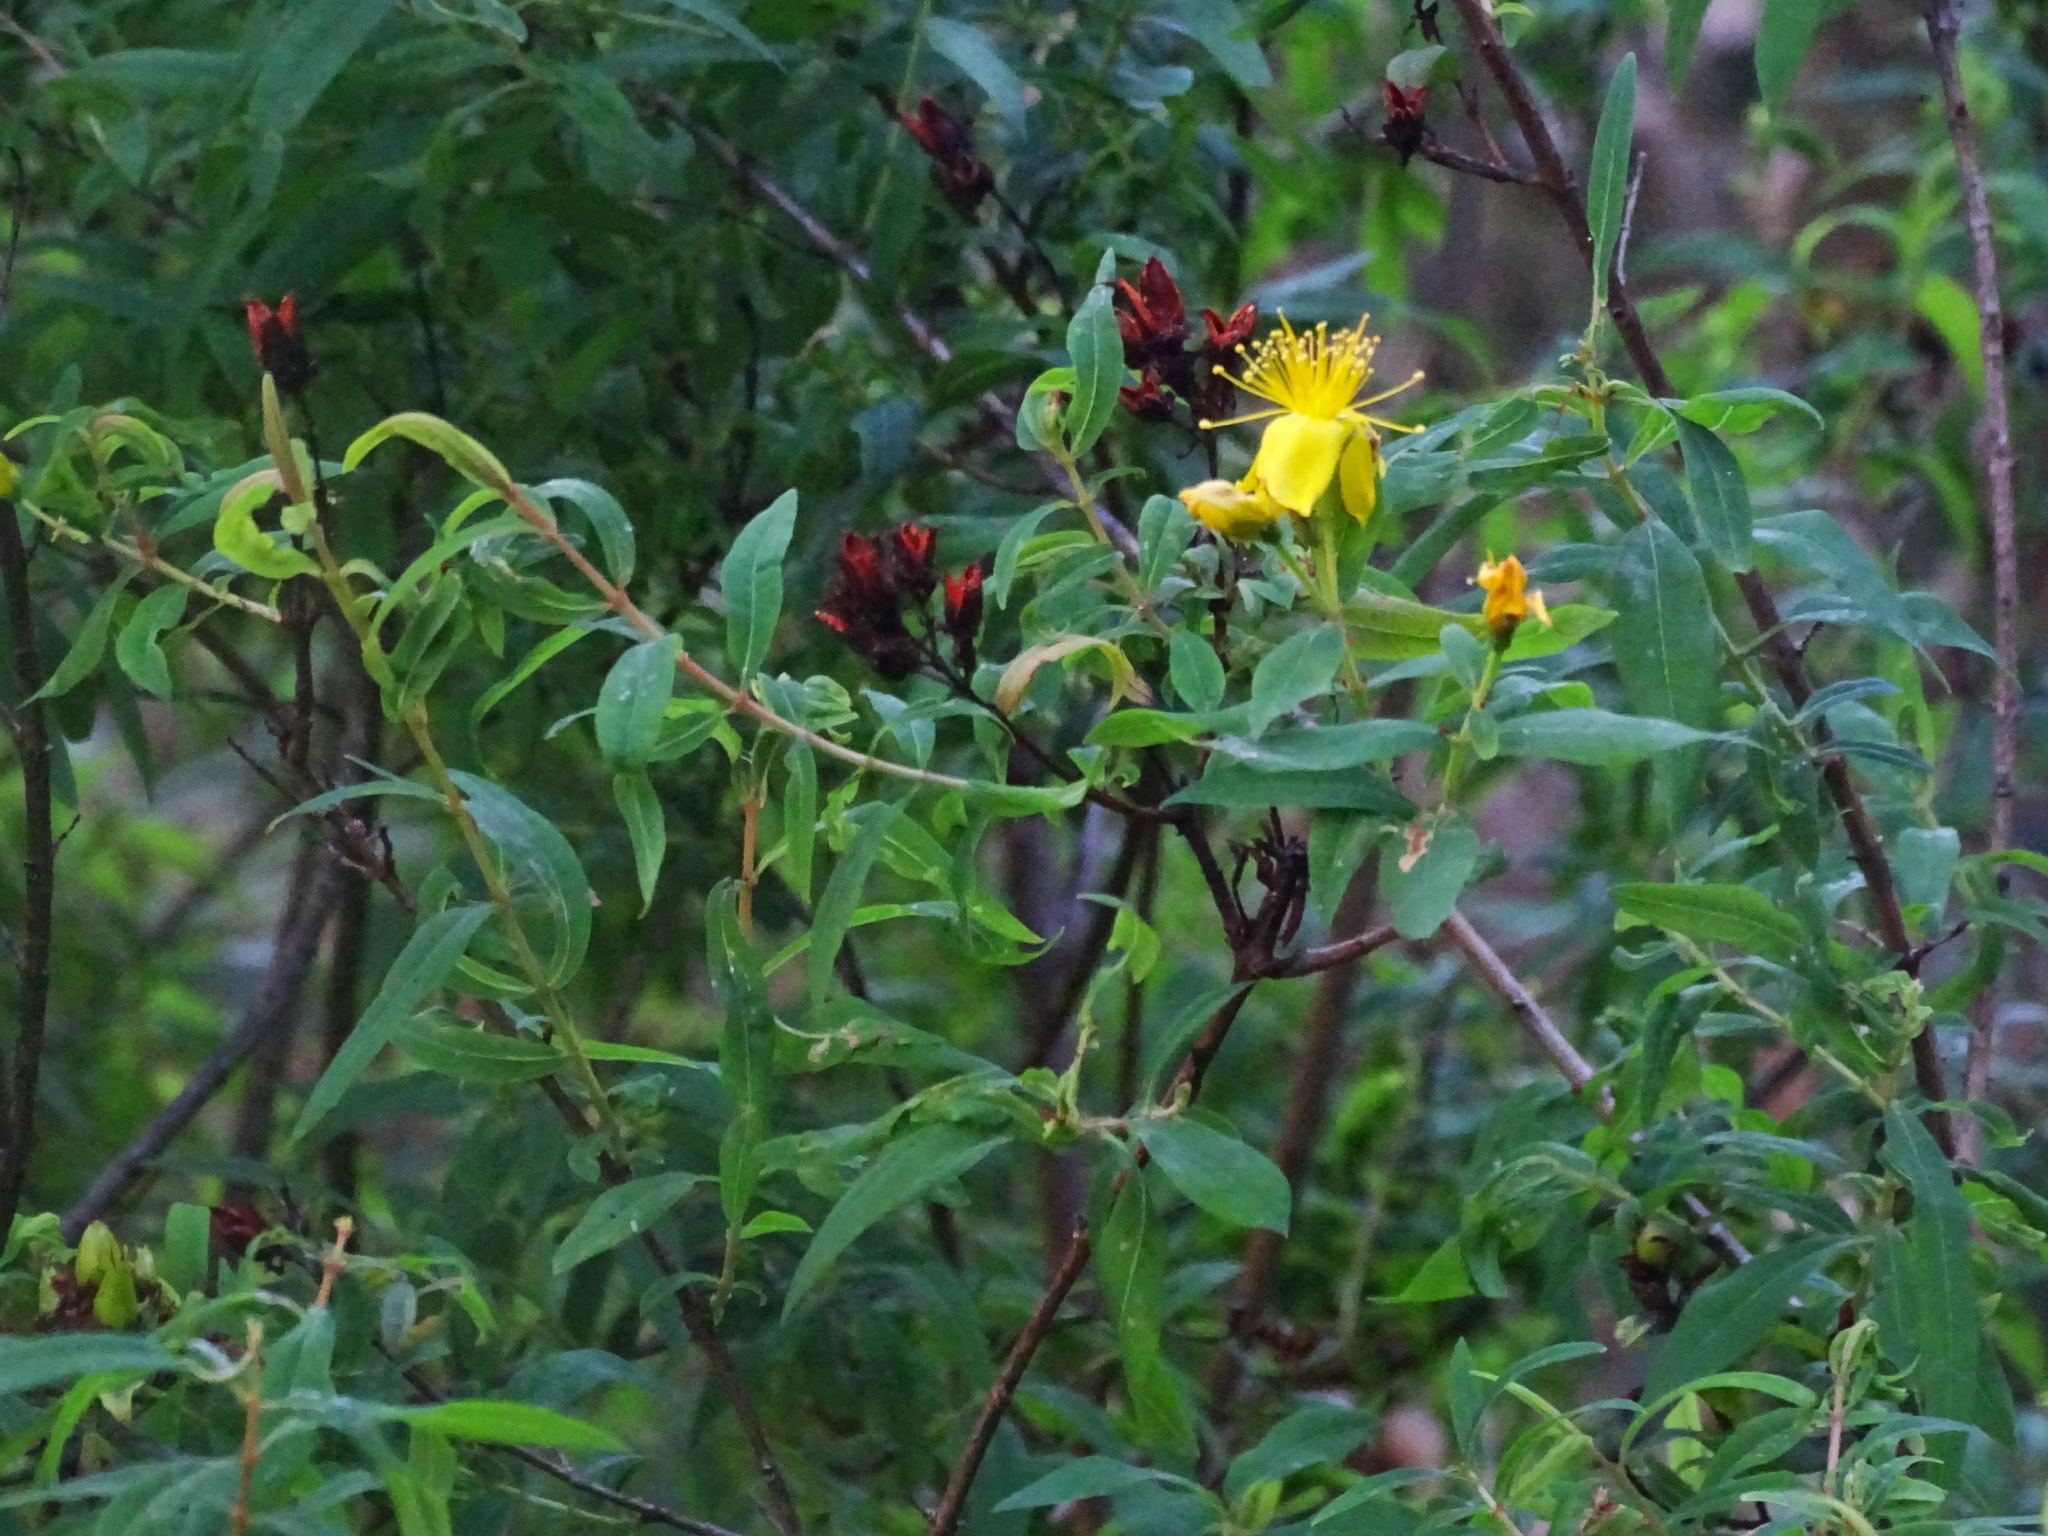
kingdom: Plantae
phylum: Tracheophyta
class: Magnoliopsida
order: Malpighiales
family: Hypericaceae
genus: Hypericum
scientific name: Hypericum canariense
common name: Canary island st. johnswort
